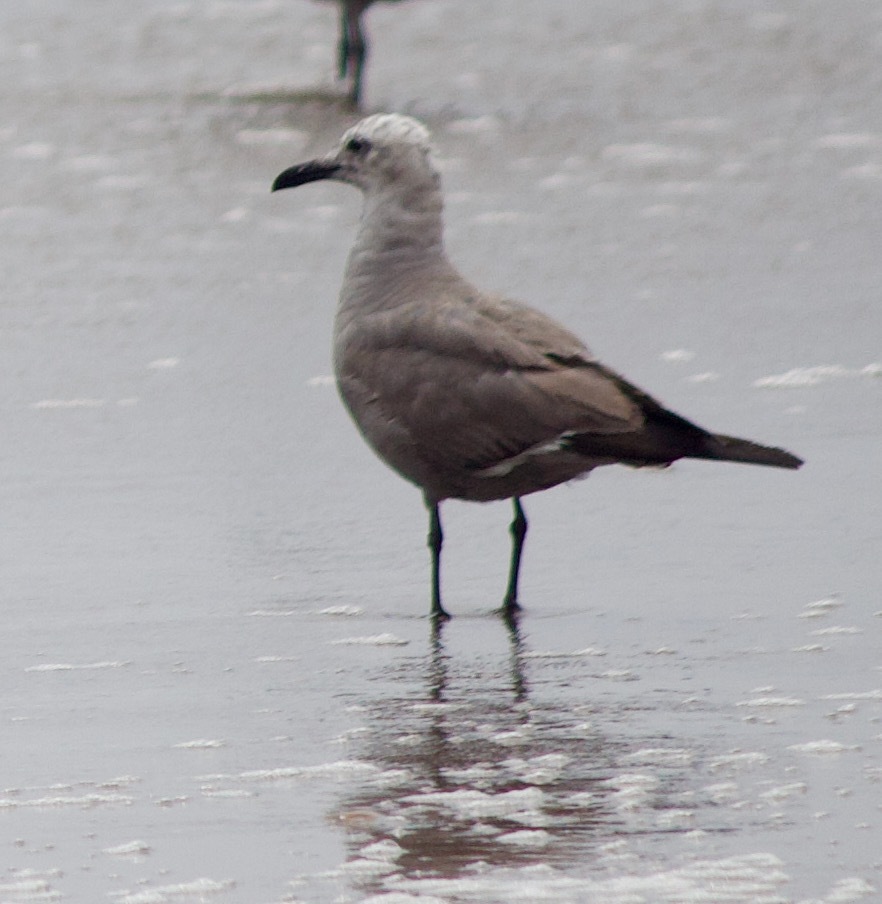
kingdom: Animalia
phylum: Chordata
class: Aves
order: Charadriiformes
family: Laridae
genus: Leucophaeus
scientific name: Leucophaeus modestus
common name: Gray gull
